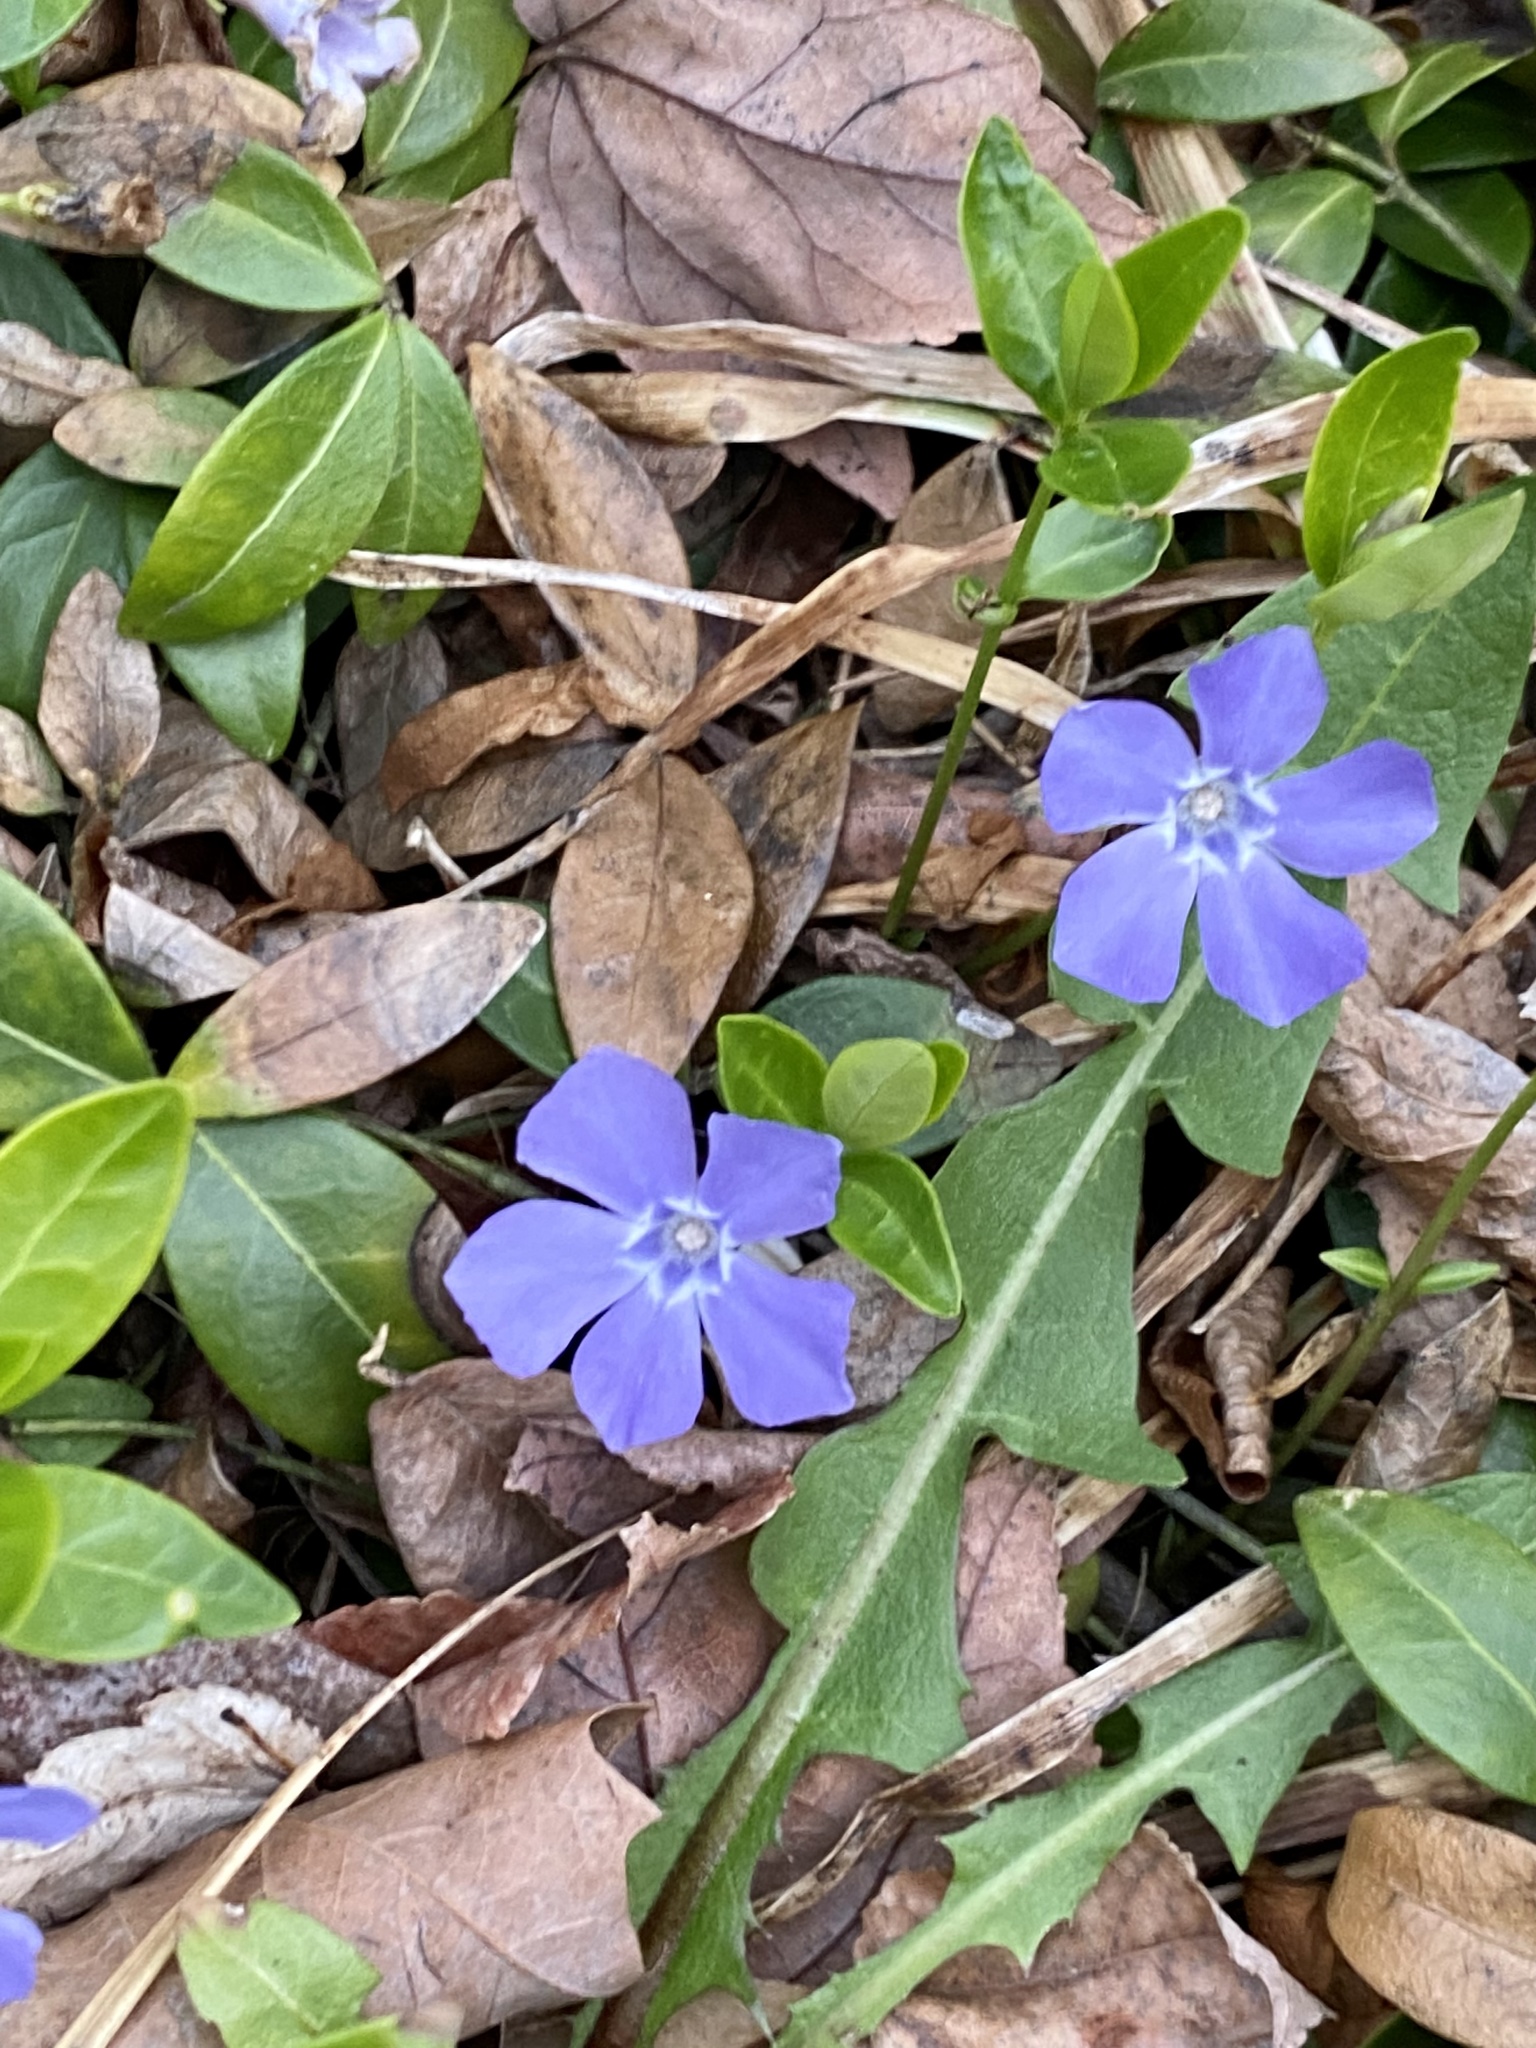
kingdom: Plantae
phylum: Tracheophyta
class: Magnoliopsida
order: Gentianales
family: Apocynaceae
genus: Vinca
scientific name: Vinca minor
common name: Lesser periwinkle
